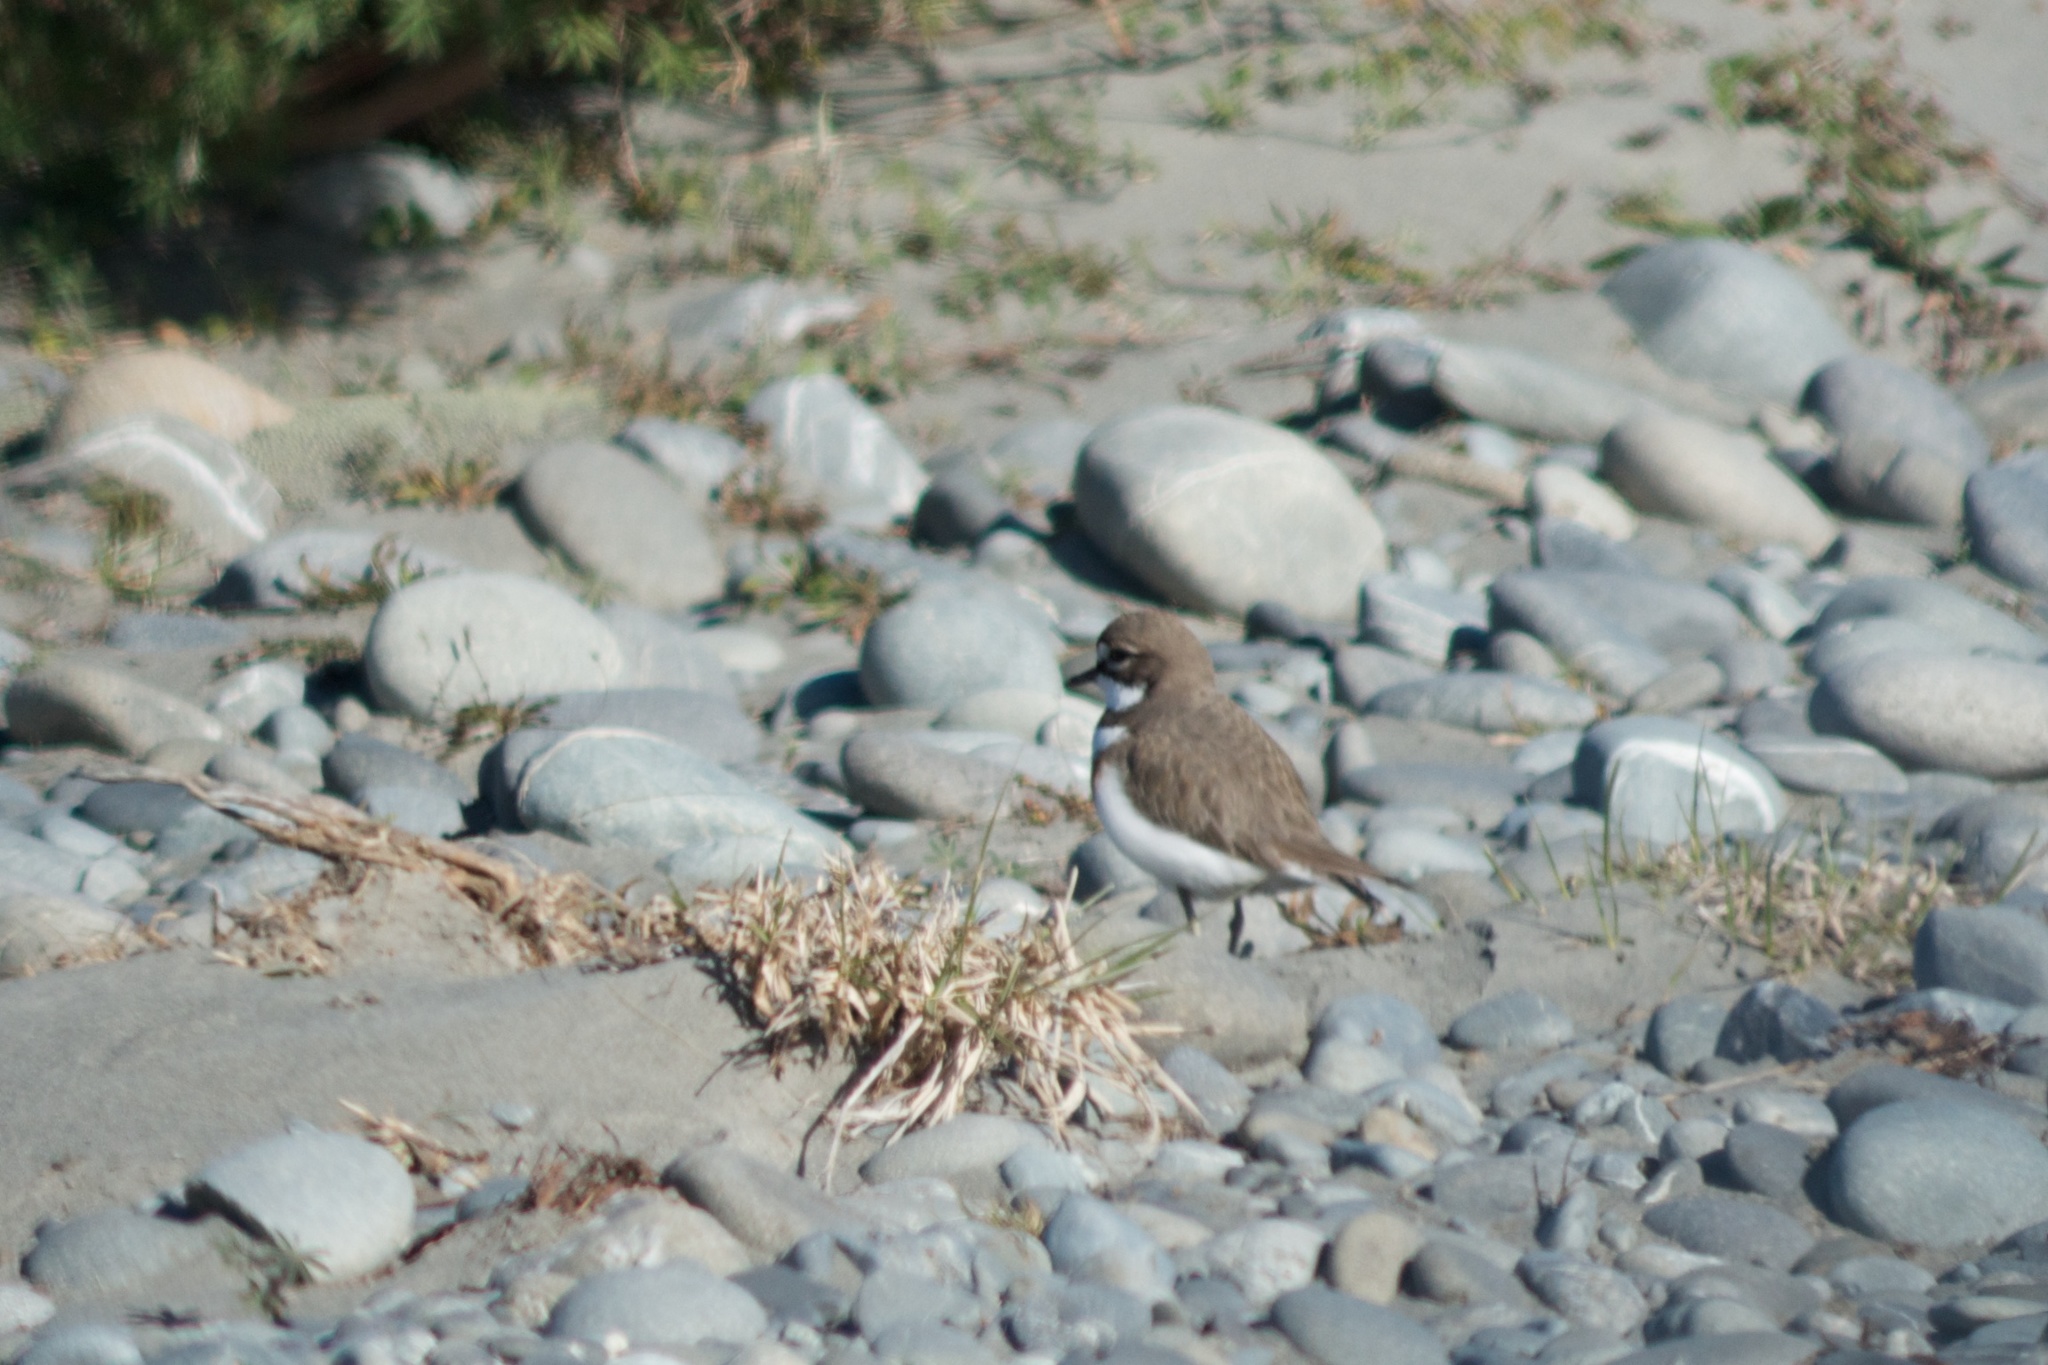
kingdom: Animalia
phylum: Chordata
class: Aves
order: Charadriiformes
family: Charadriidae
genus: Anarhynchus
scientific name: Anarhynchus
